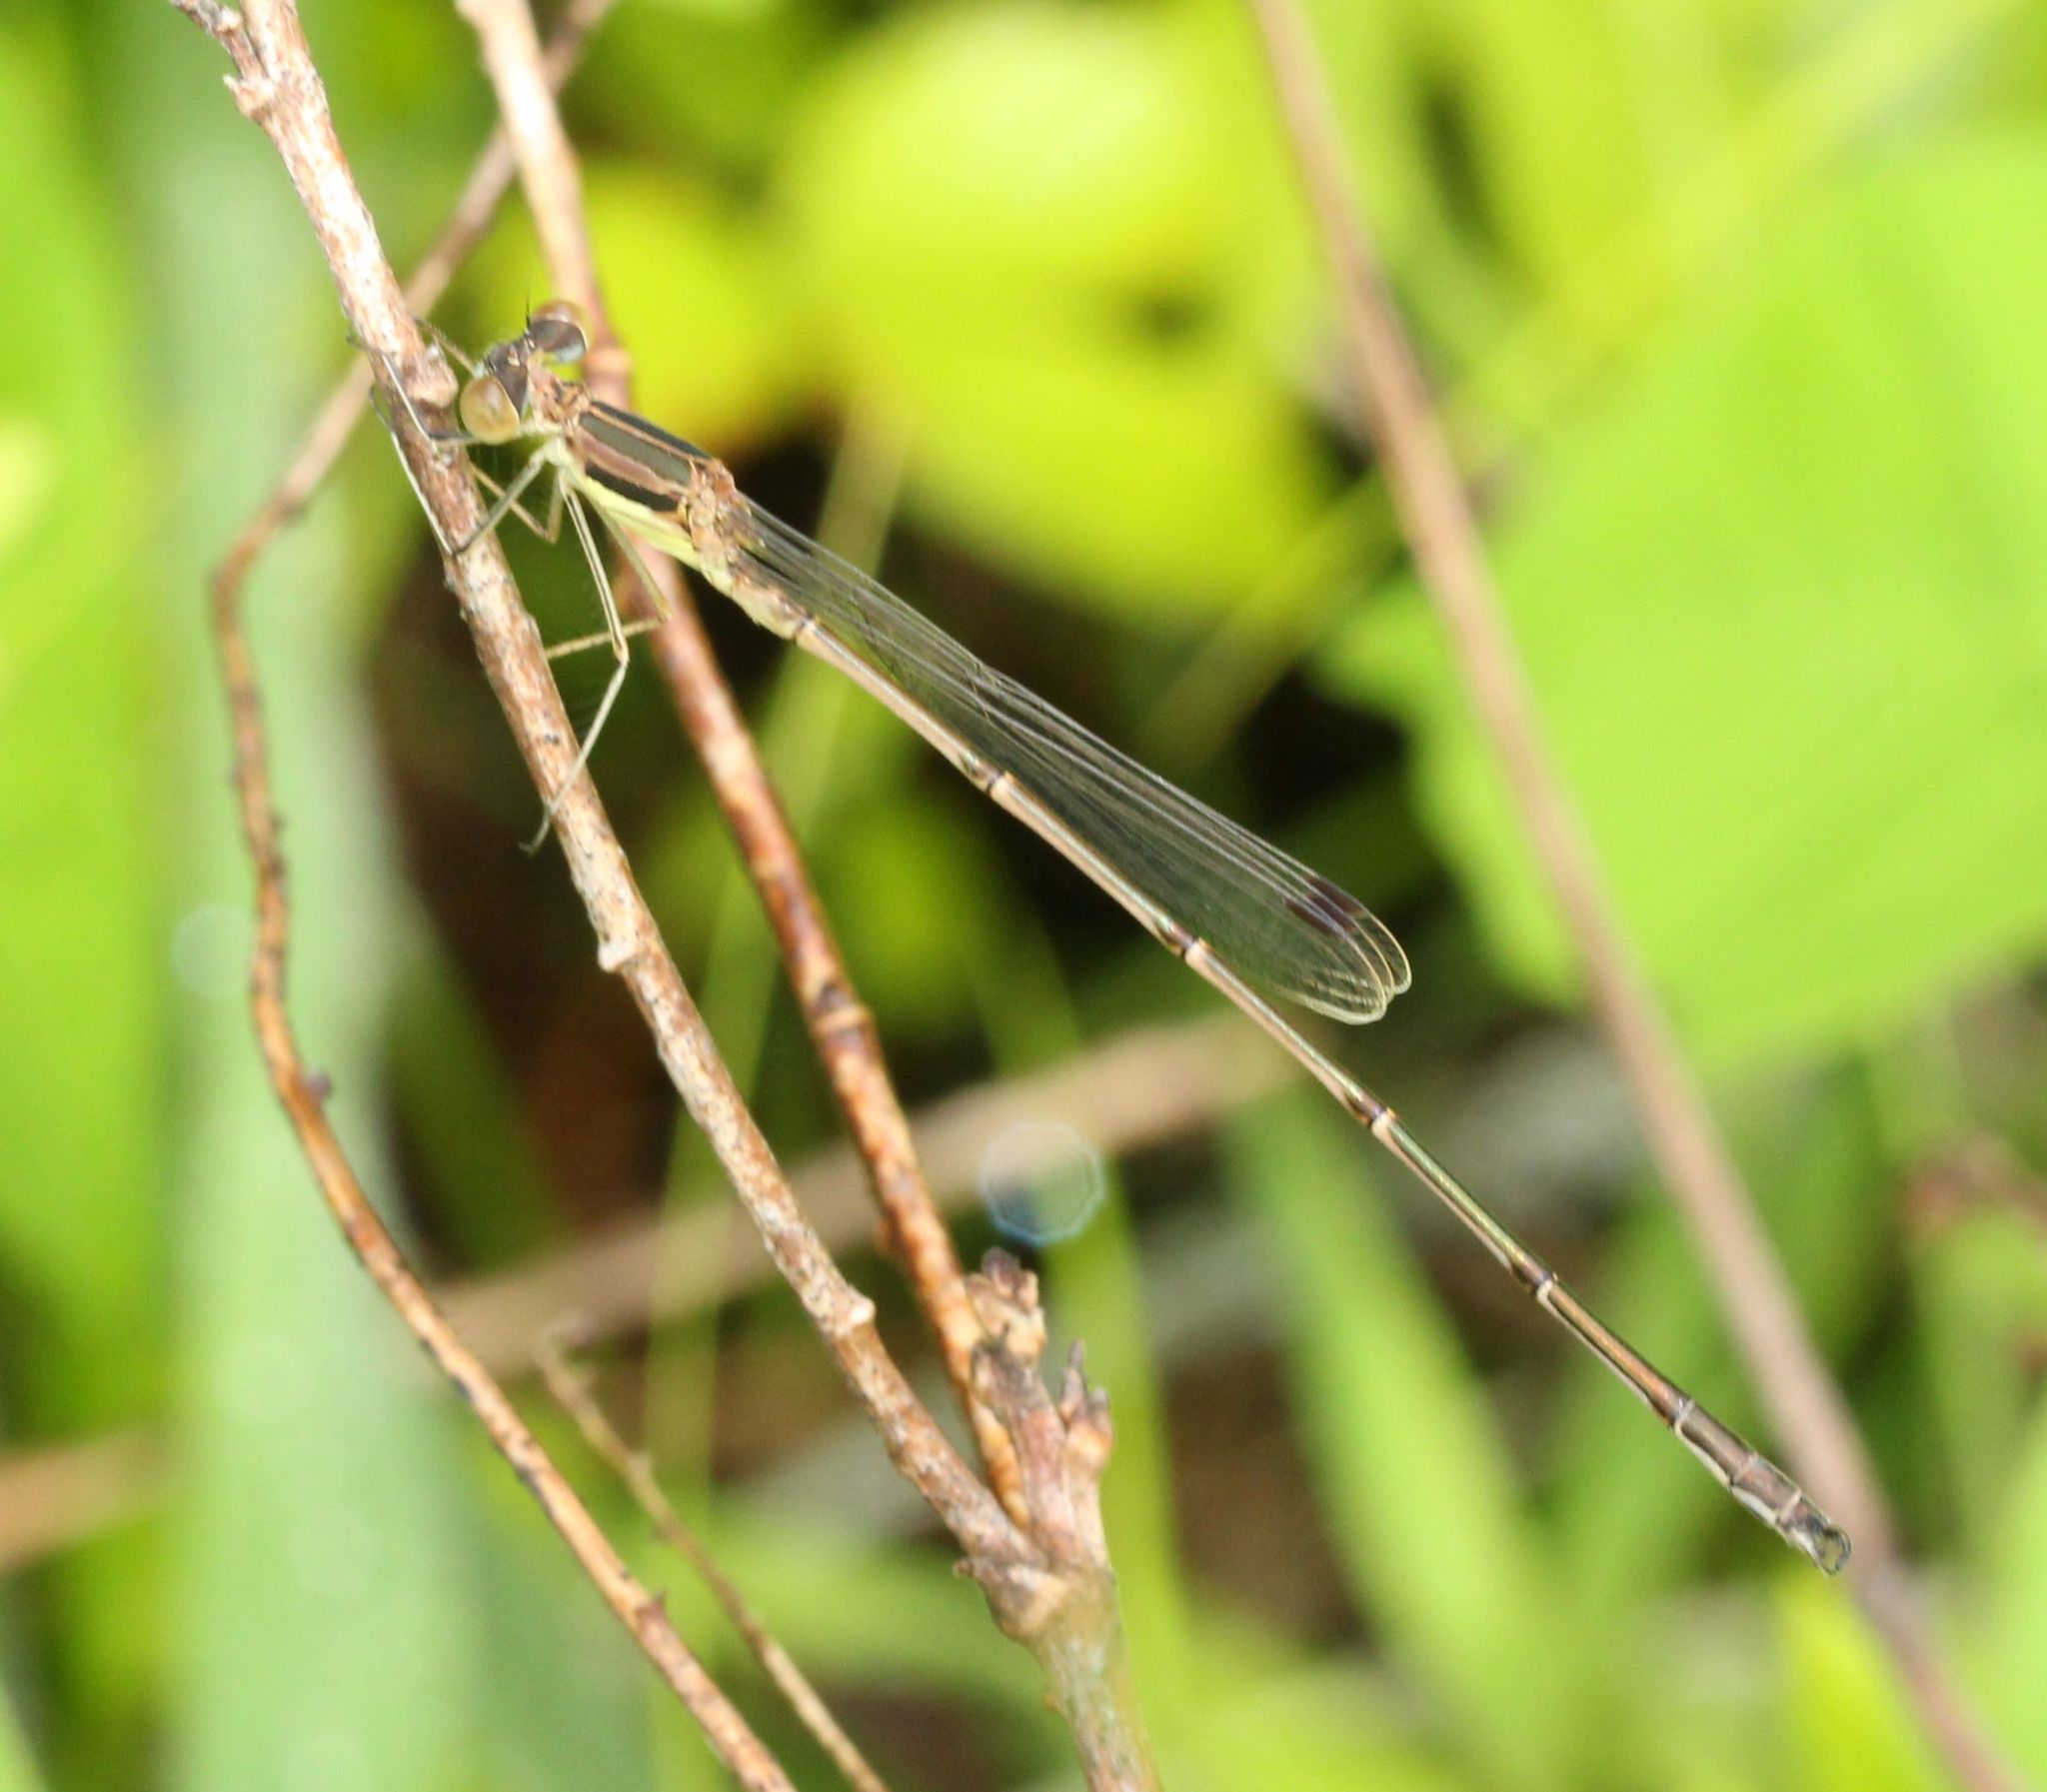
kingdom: Animalia
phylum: Arthropoda
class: Insecta
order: Odonata
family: Lestidae
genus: Lestes
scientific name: Lestes rectangularis
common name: Slender spreadwing
